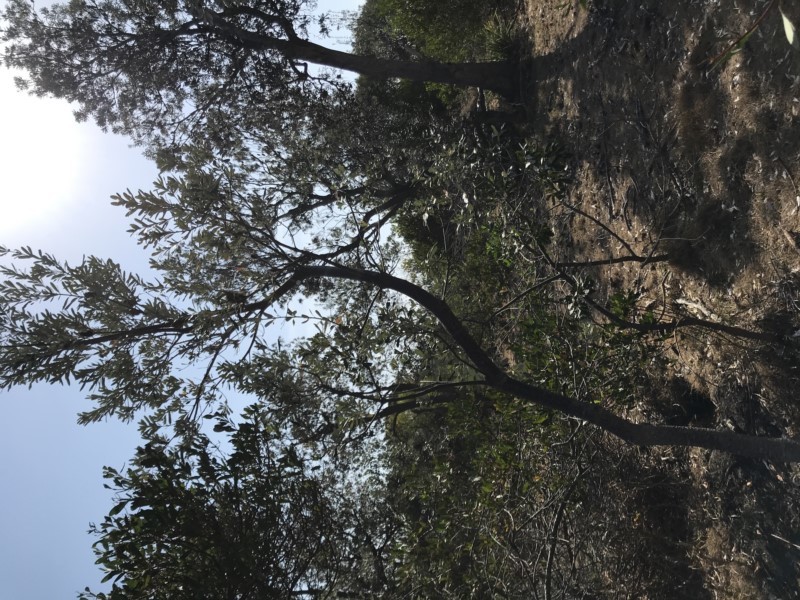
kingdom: Plantae
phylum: Tracheophyta
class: Magnoliopsida
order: Proteales
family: Proteaceae
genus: Banksia
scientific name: Banksia integrifolia
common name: White-honeysuckle
